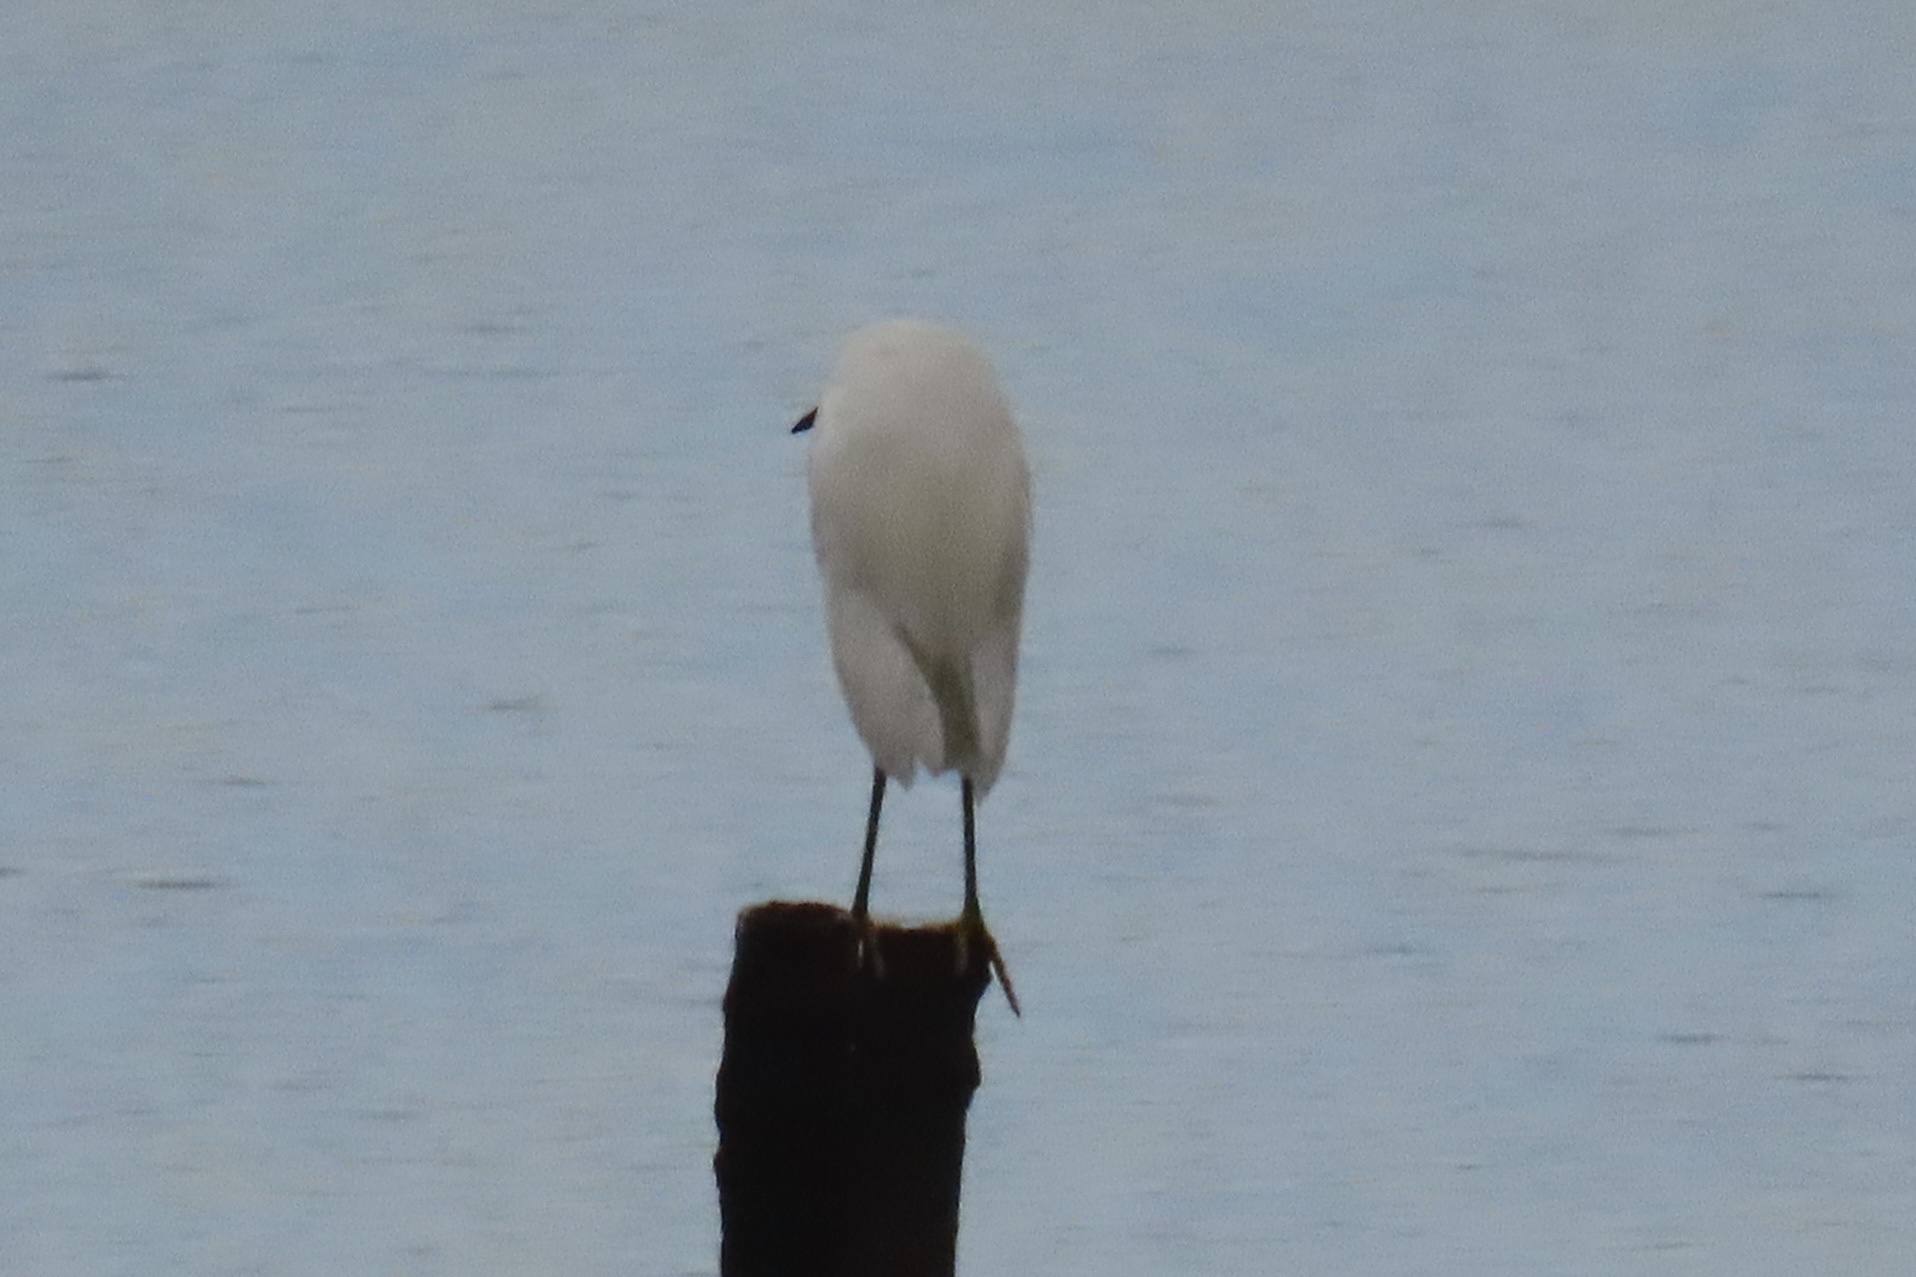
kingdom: Animalia
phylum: Chordata
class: Aves
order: Pelecaniformes
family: Ardeidae
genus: Egretta
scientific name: Egretta thula
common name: Snowy egret
